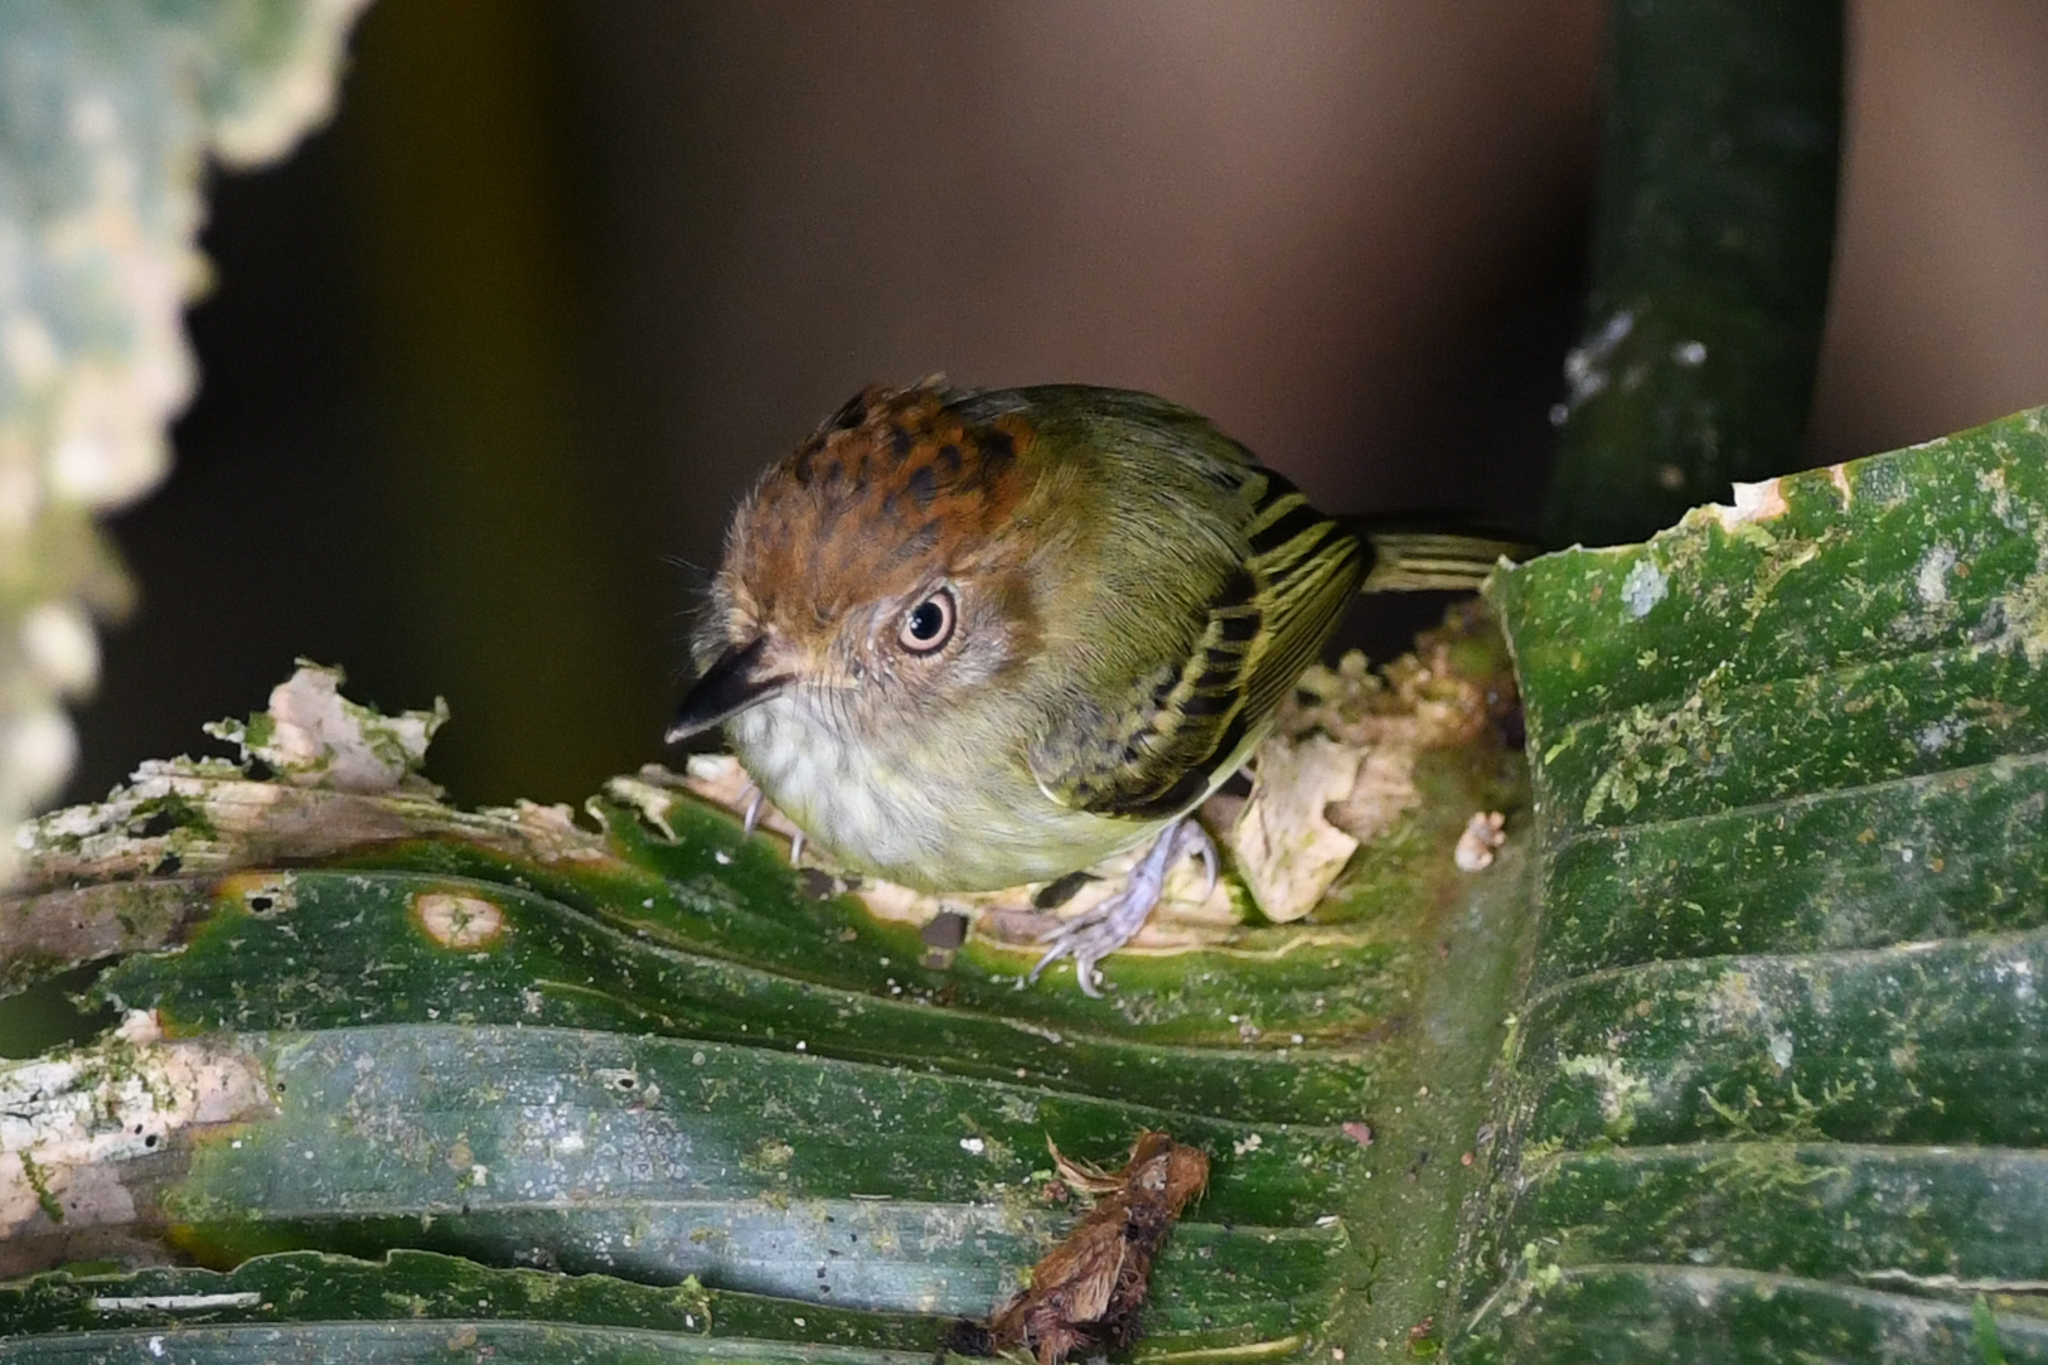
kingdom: Animalia
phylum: Chordata
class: Aves
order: Passeriformes
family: Tyrannidae
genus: Lophotriccus
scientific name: Lophotriccus pileatus
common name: Scale-crested pygmy-tyrant
